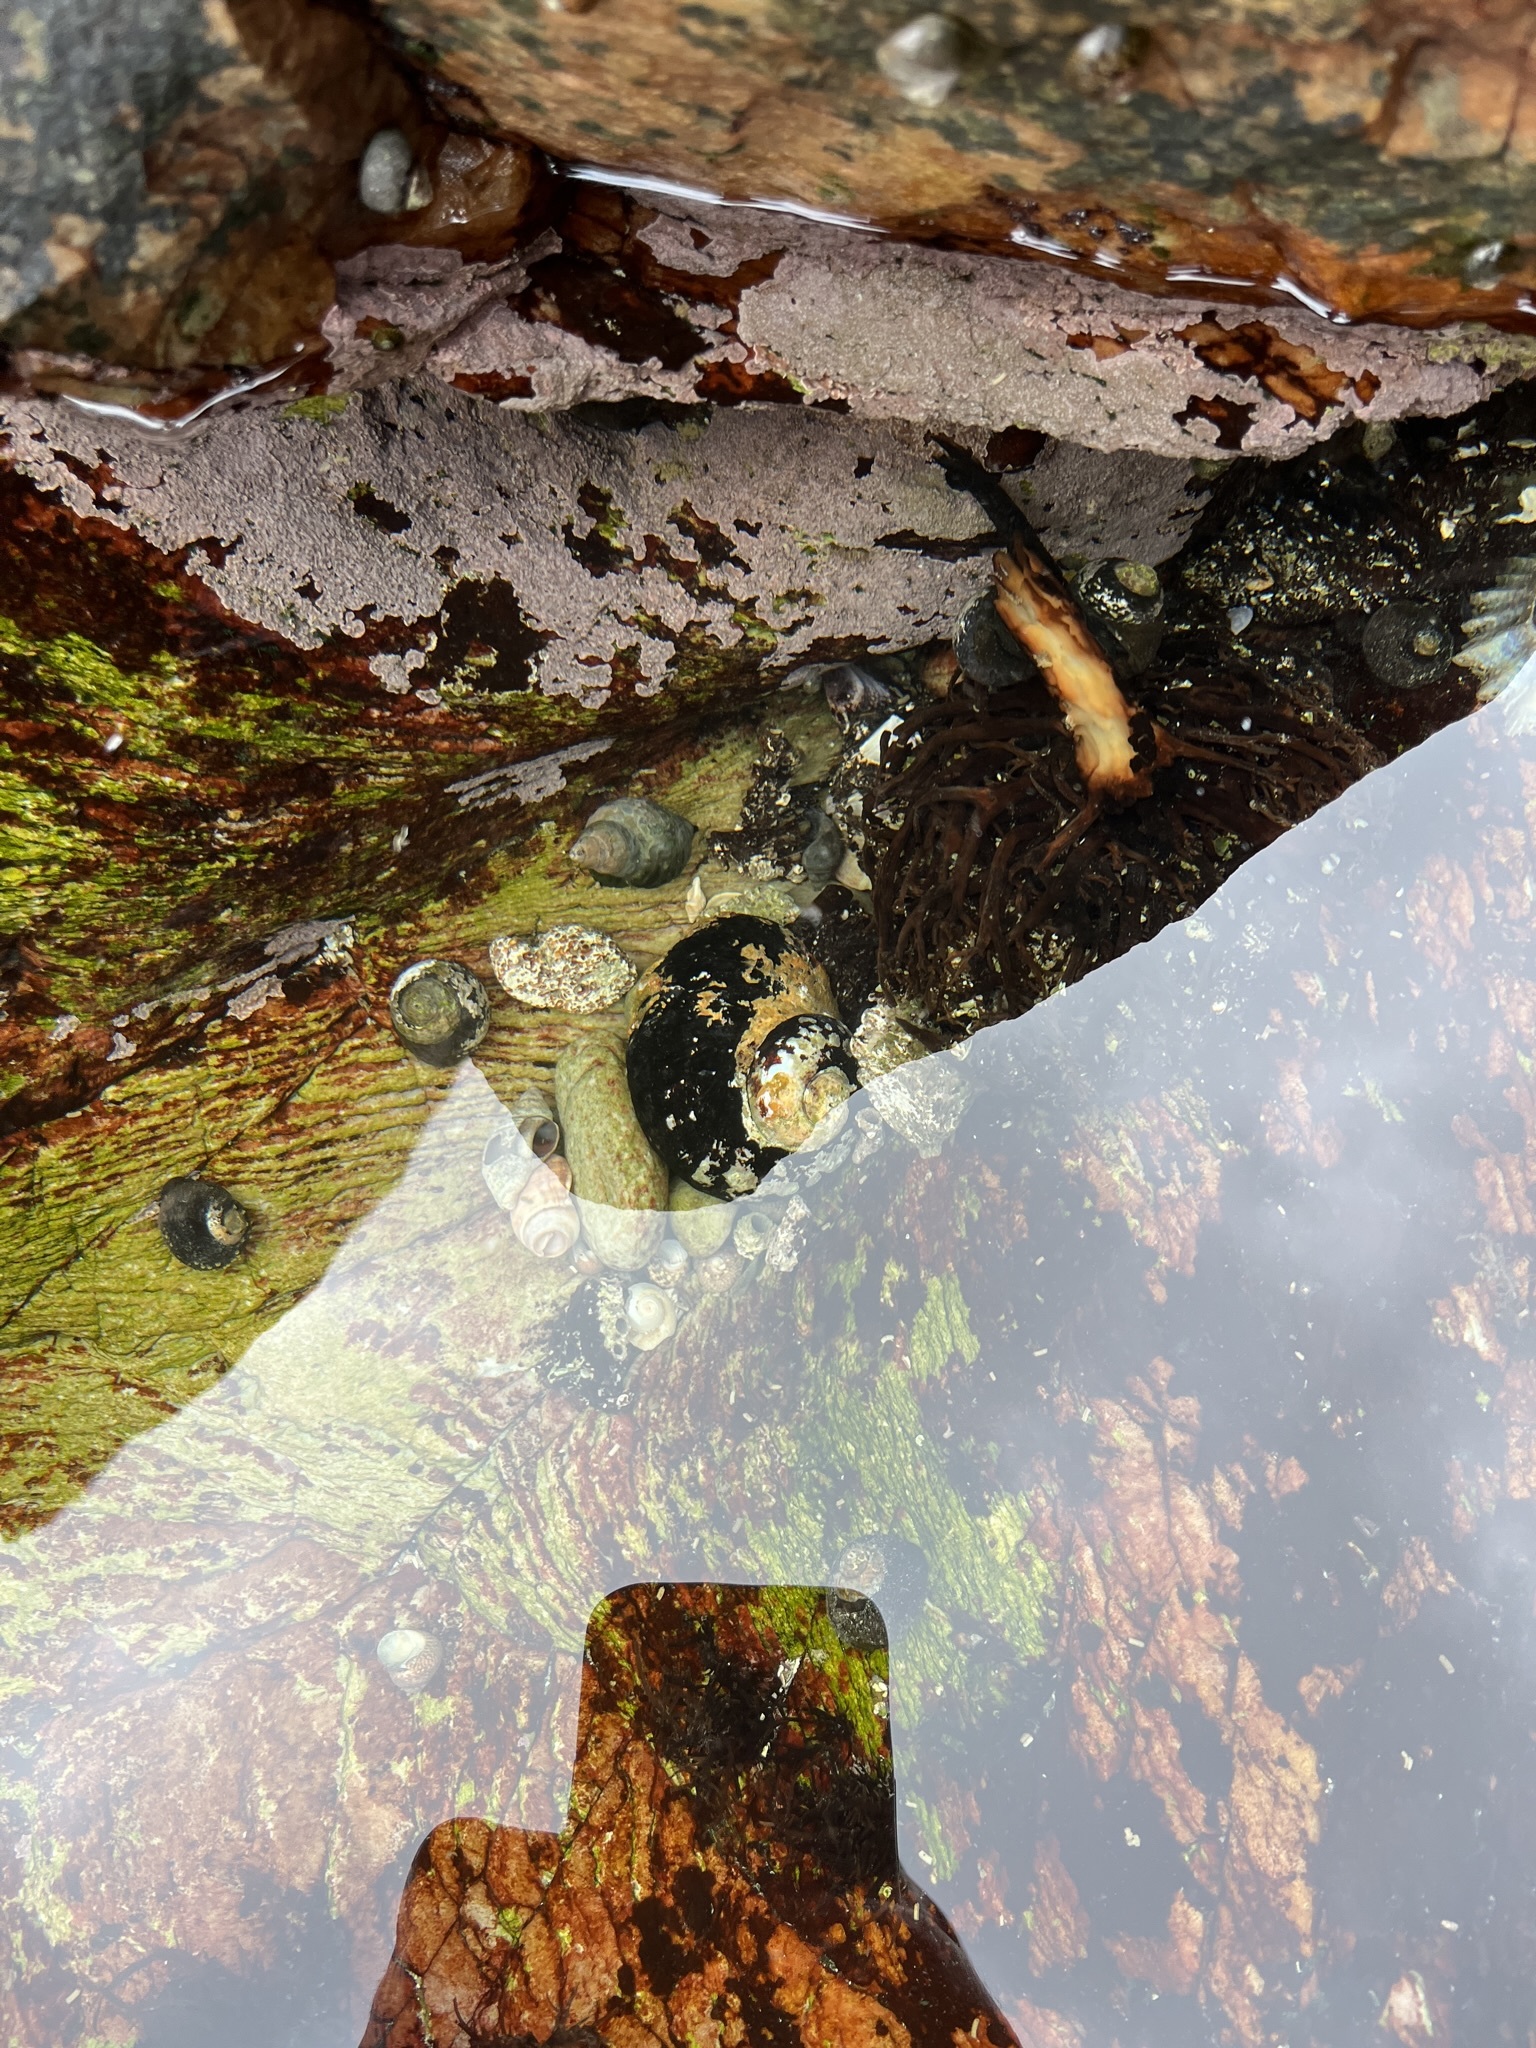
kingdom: Animalia
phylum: Mollusca
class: Gastropoda
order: Trochida
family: Turbinidae
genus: Turbo
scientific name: Turbo sarmaticus
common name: South african turban
